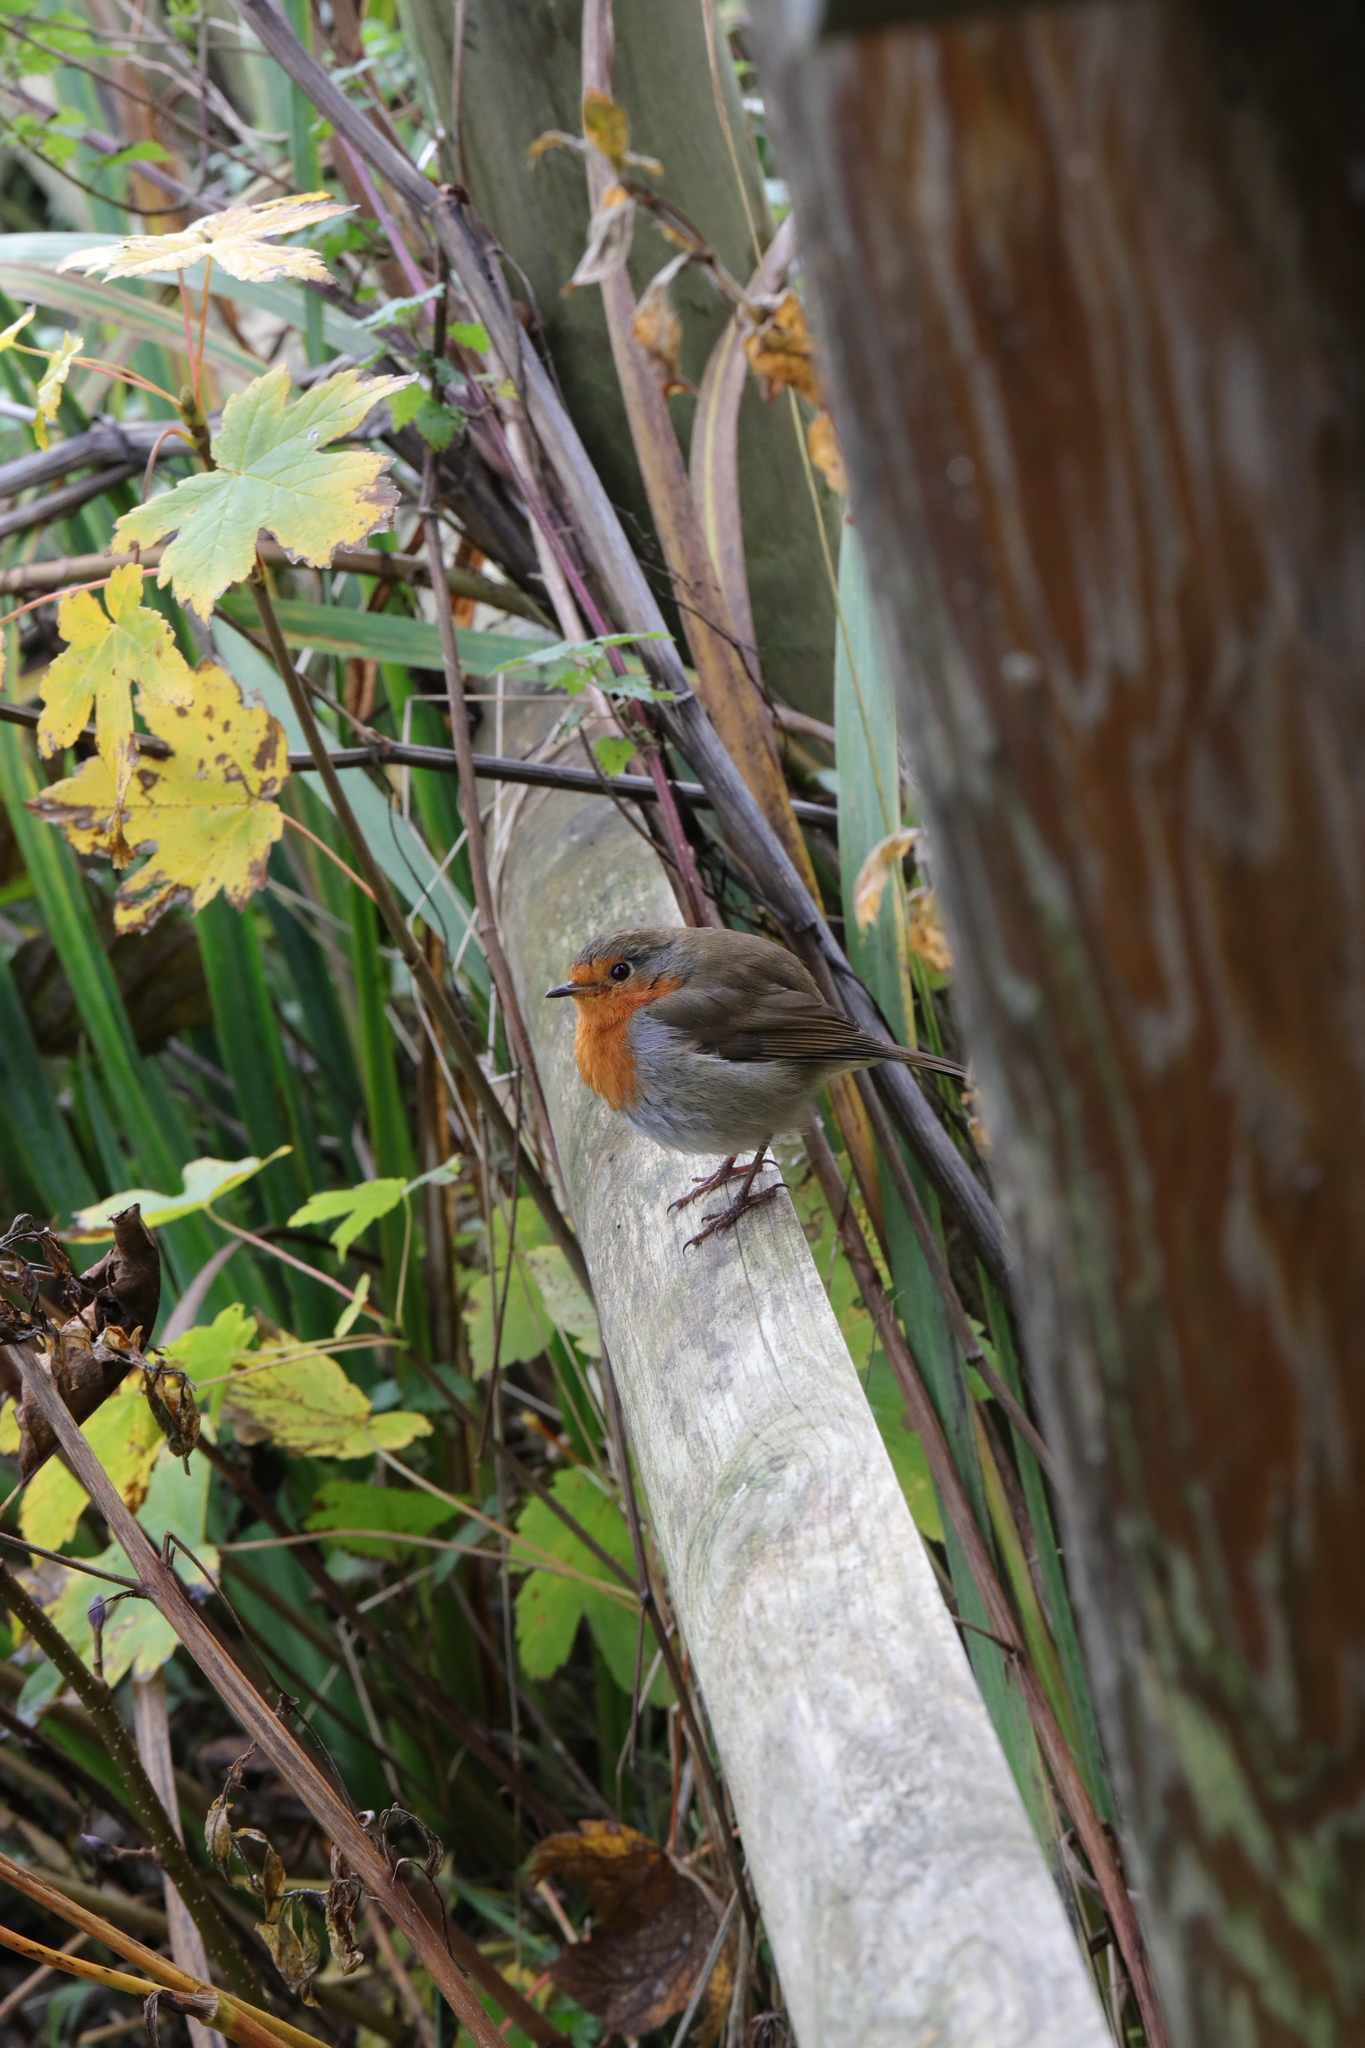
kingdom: Animalia
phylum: Chordata
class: Aves
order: Passeriformes
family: Muscicapidae
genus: Erithacus
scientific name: Erithacus rubecula
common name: European robin
